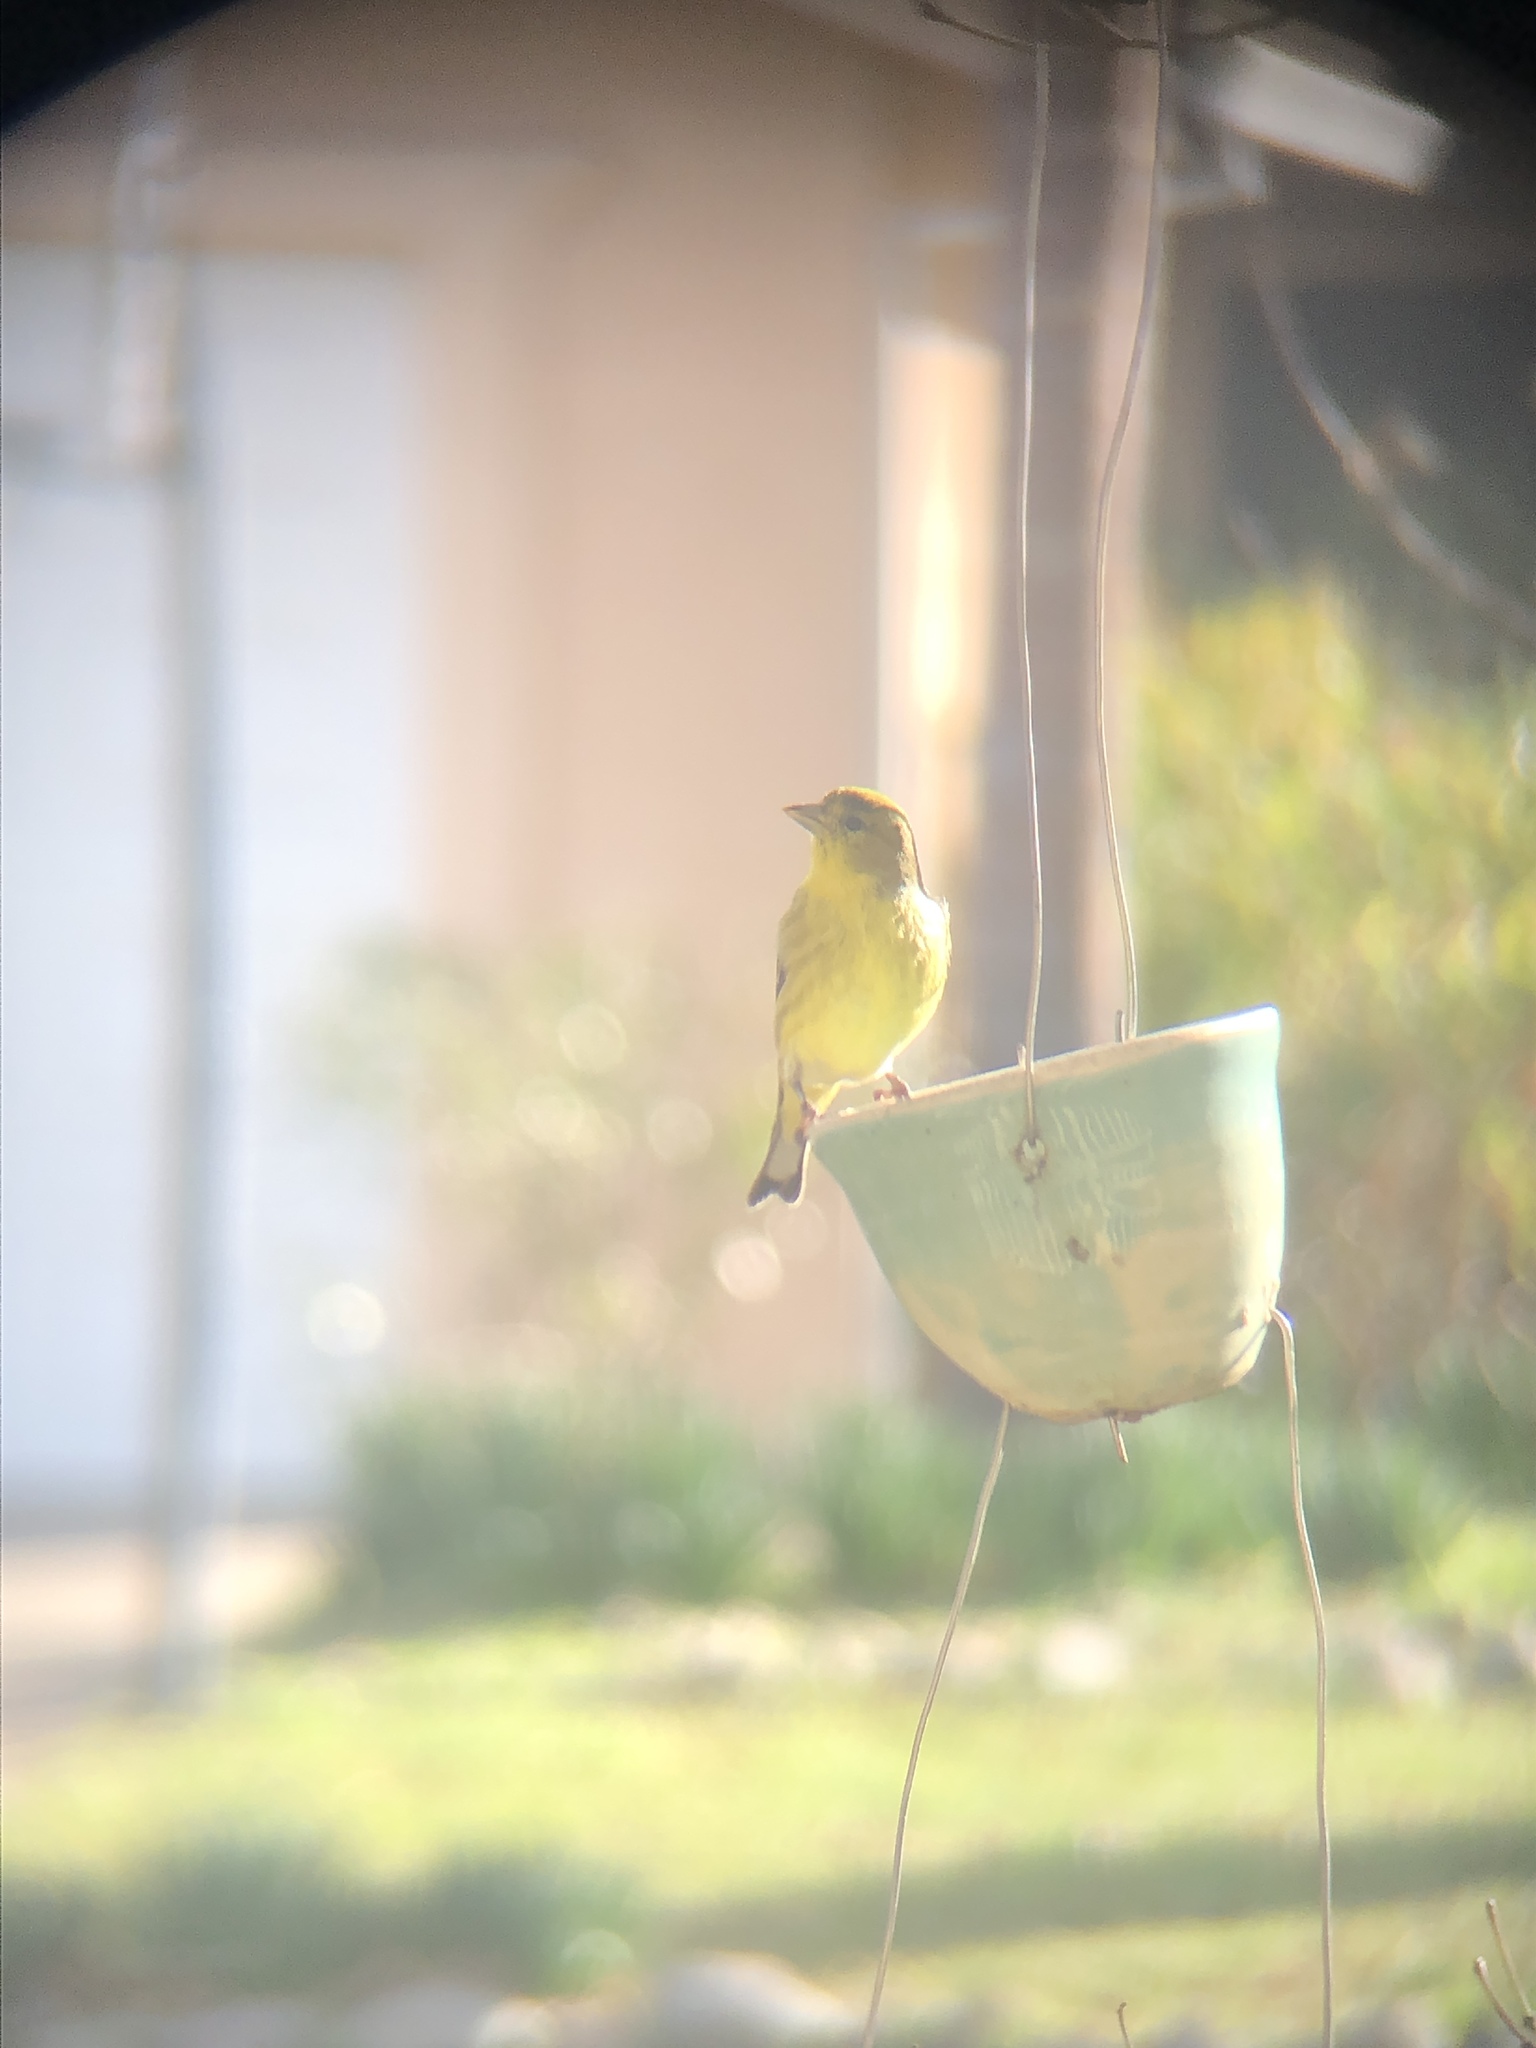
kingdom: Animalia
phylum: Chordata
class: Aves
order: Passeriformes
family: Fringillidae
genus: Spinus
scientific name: Spinus psaltria
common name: Lesser goldfinch
